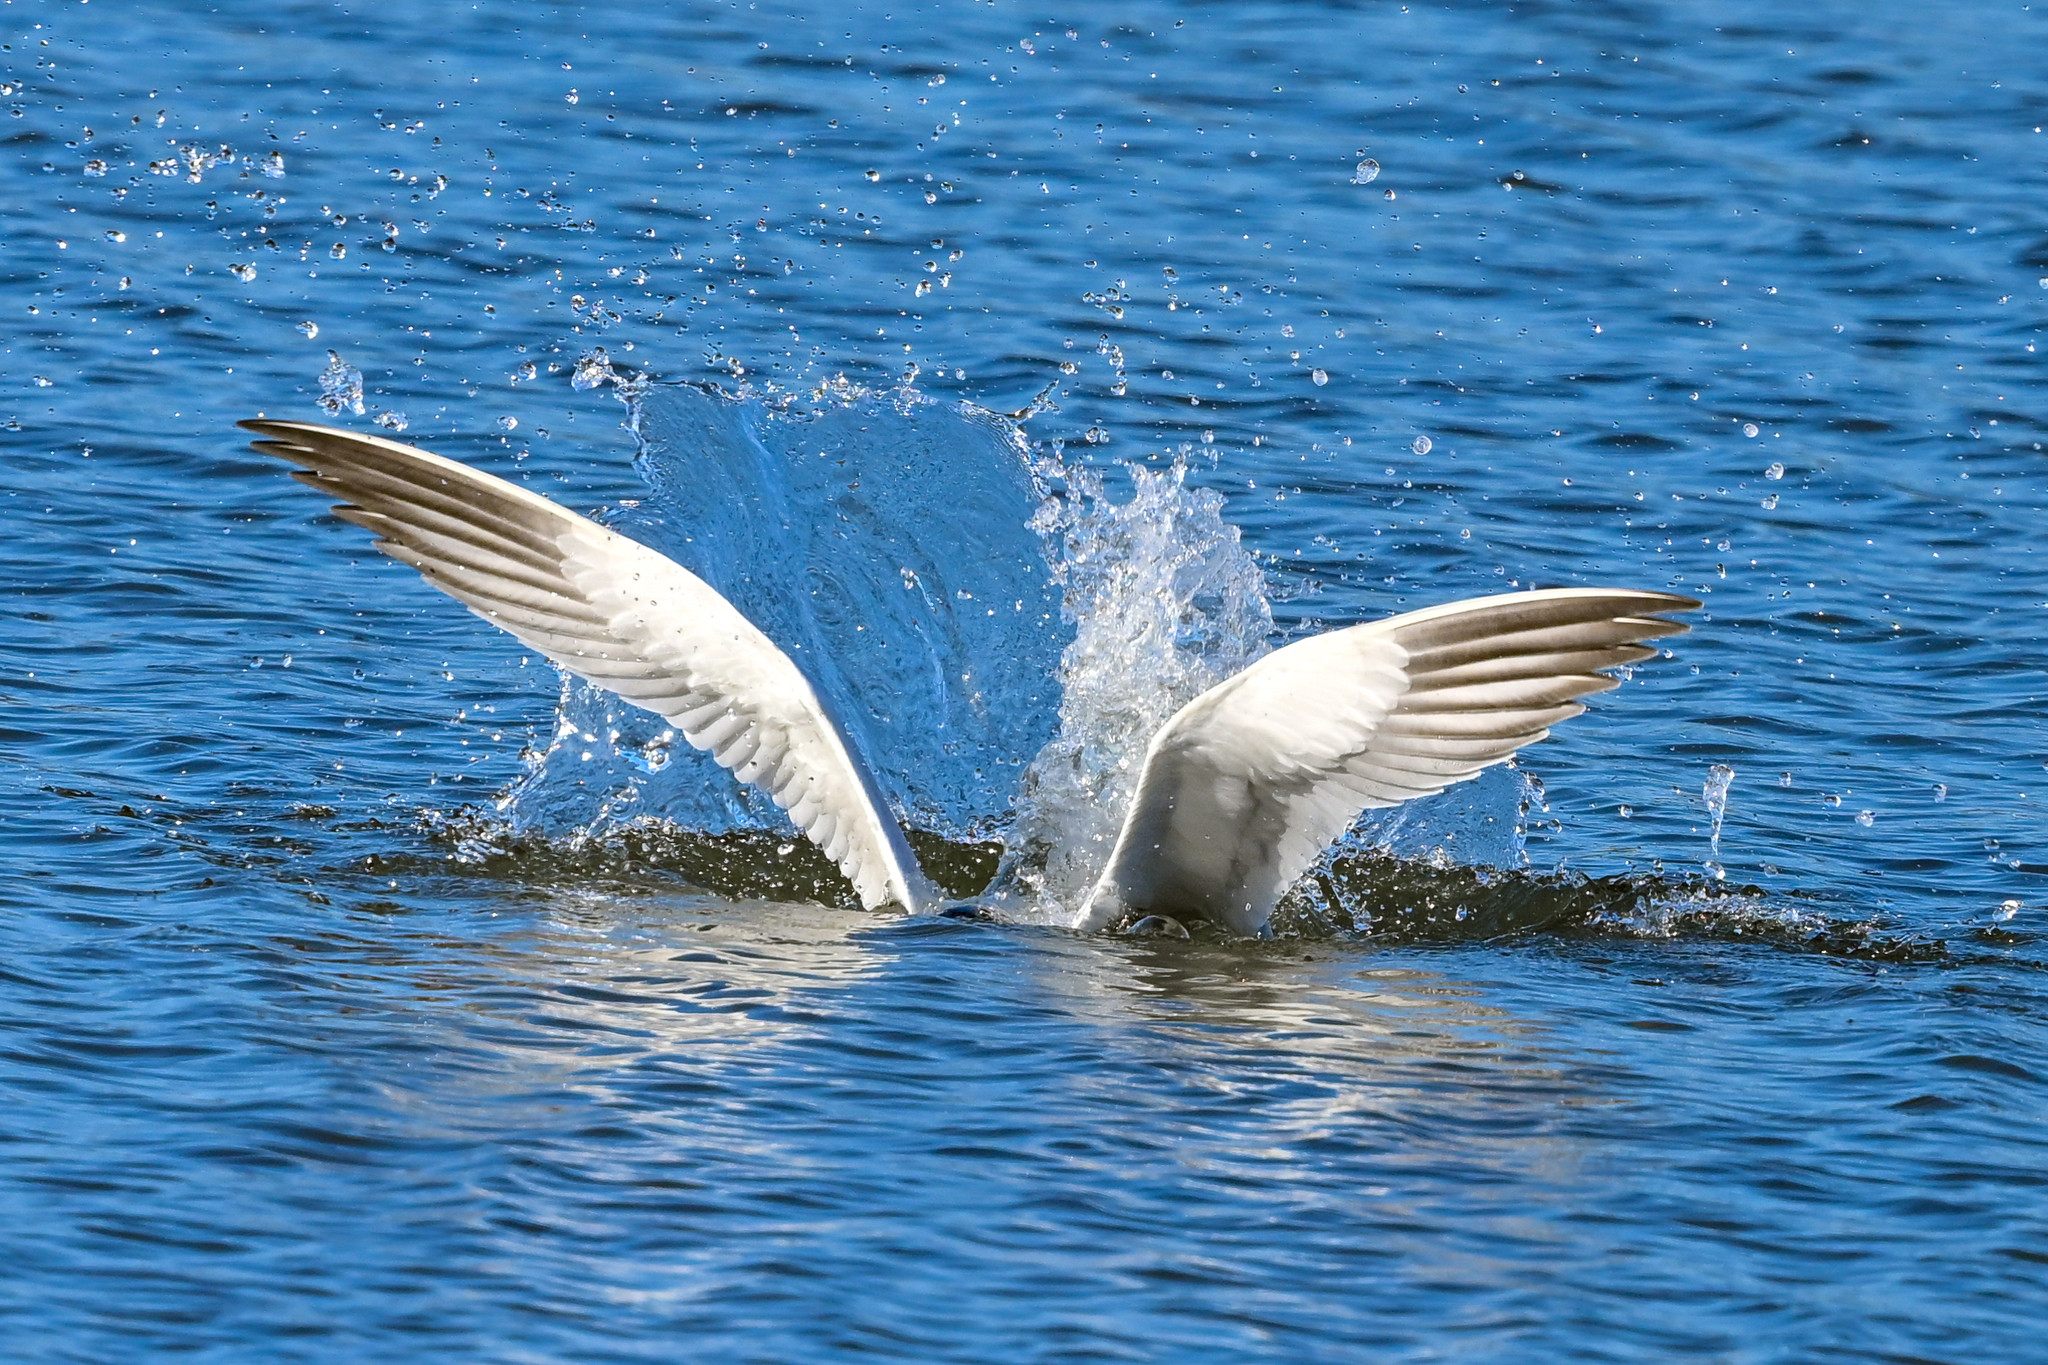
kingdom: Animalia
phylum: Chordata
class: Aves
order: Charadriiformes
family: Laridae
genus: Hydroprogne
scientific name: Hydroprogne caspia
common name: Caspian tern
